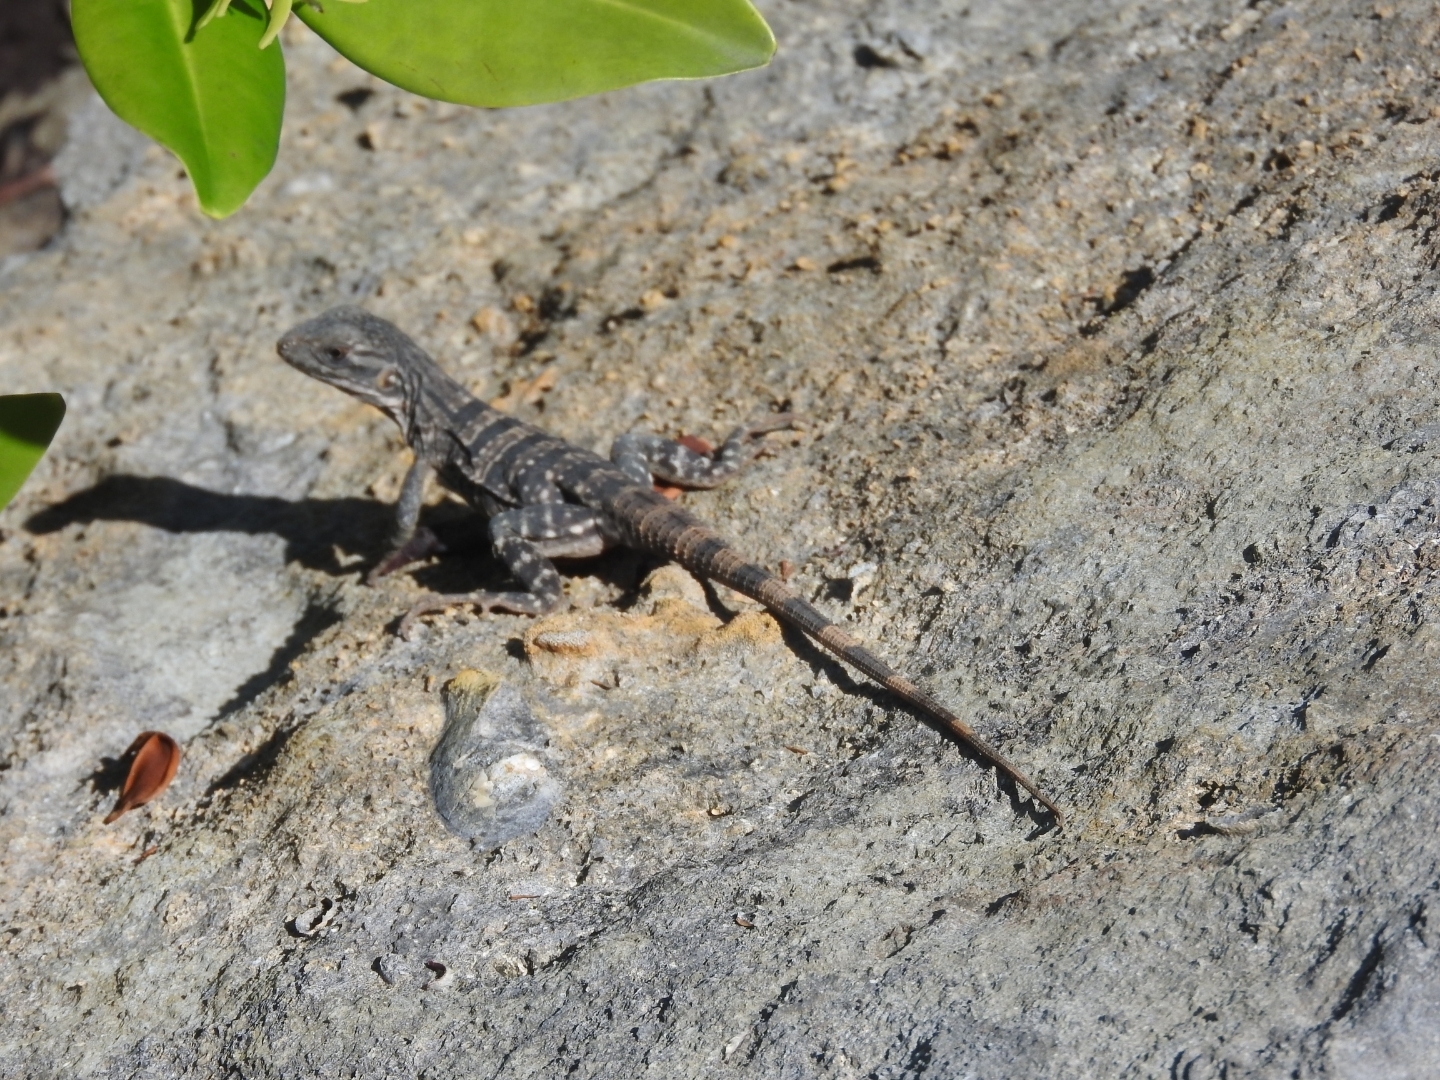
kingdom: Animalia
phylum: Chordata
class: Squamata
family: Iguanidae
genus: Ctenosaura
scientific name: Ctenosaura similis
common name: Black spiny-tailed iguana
